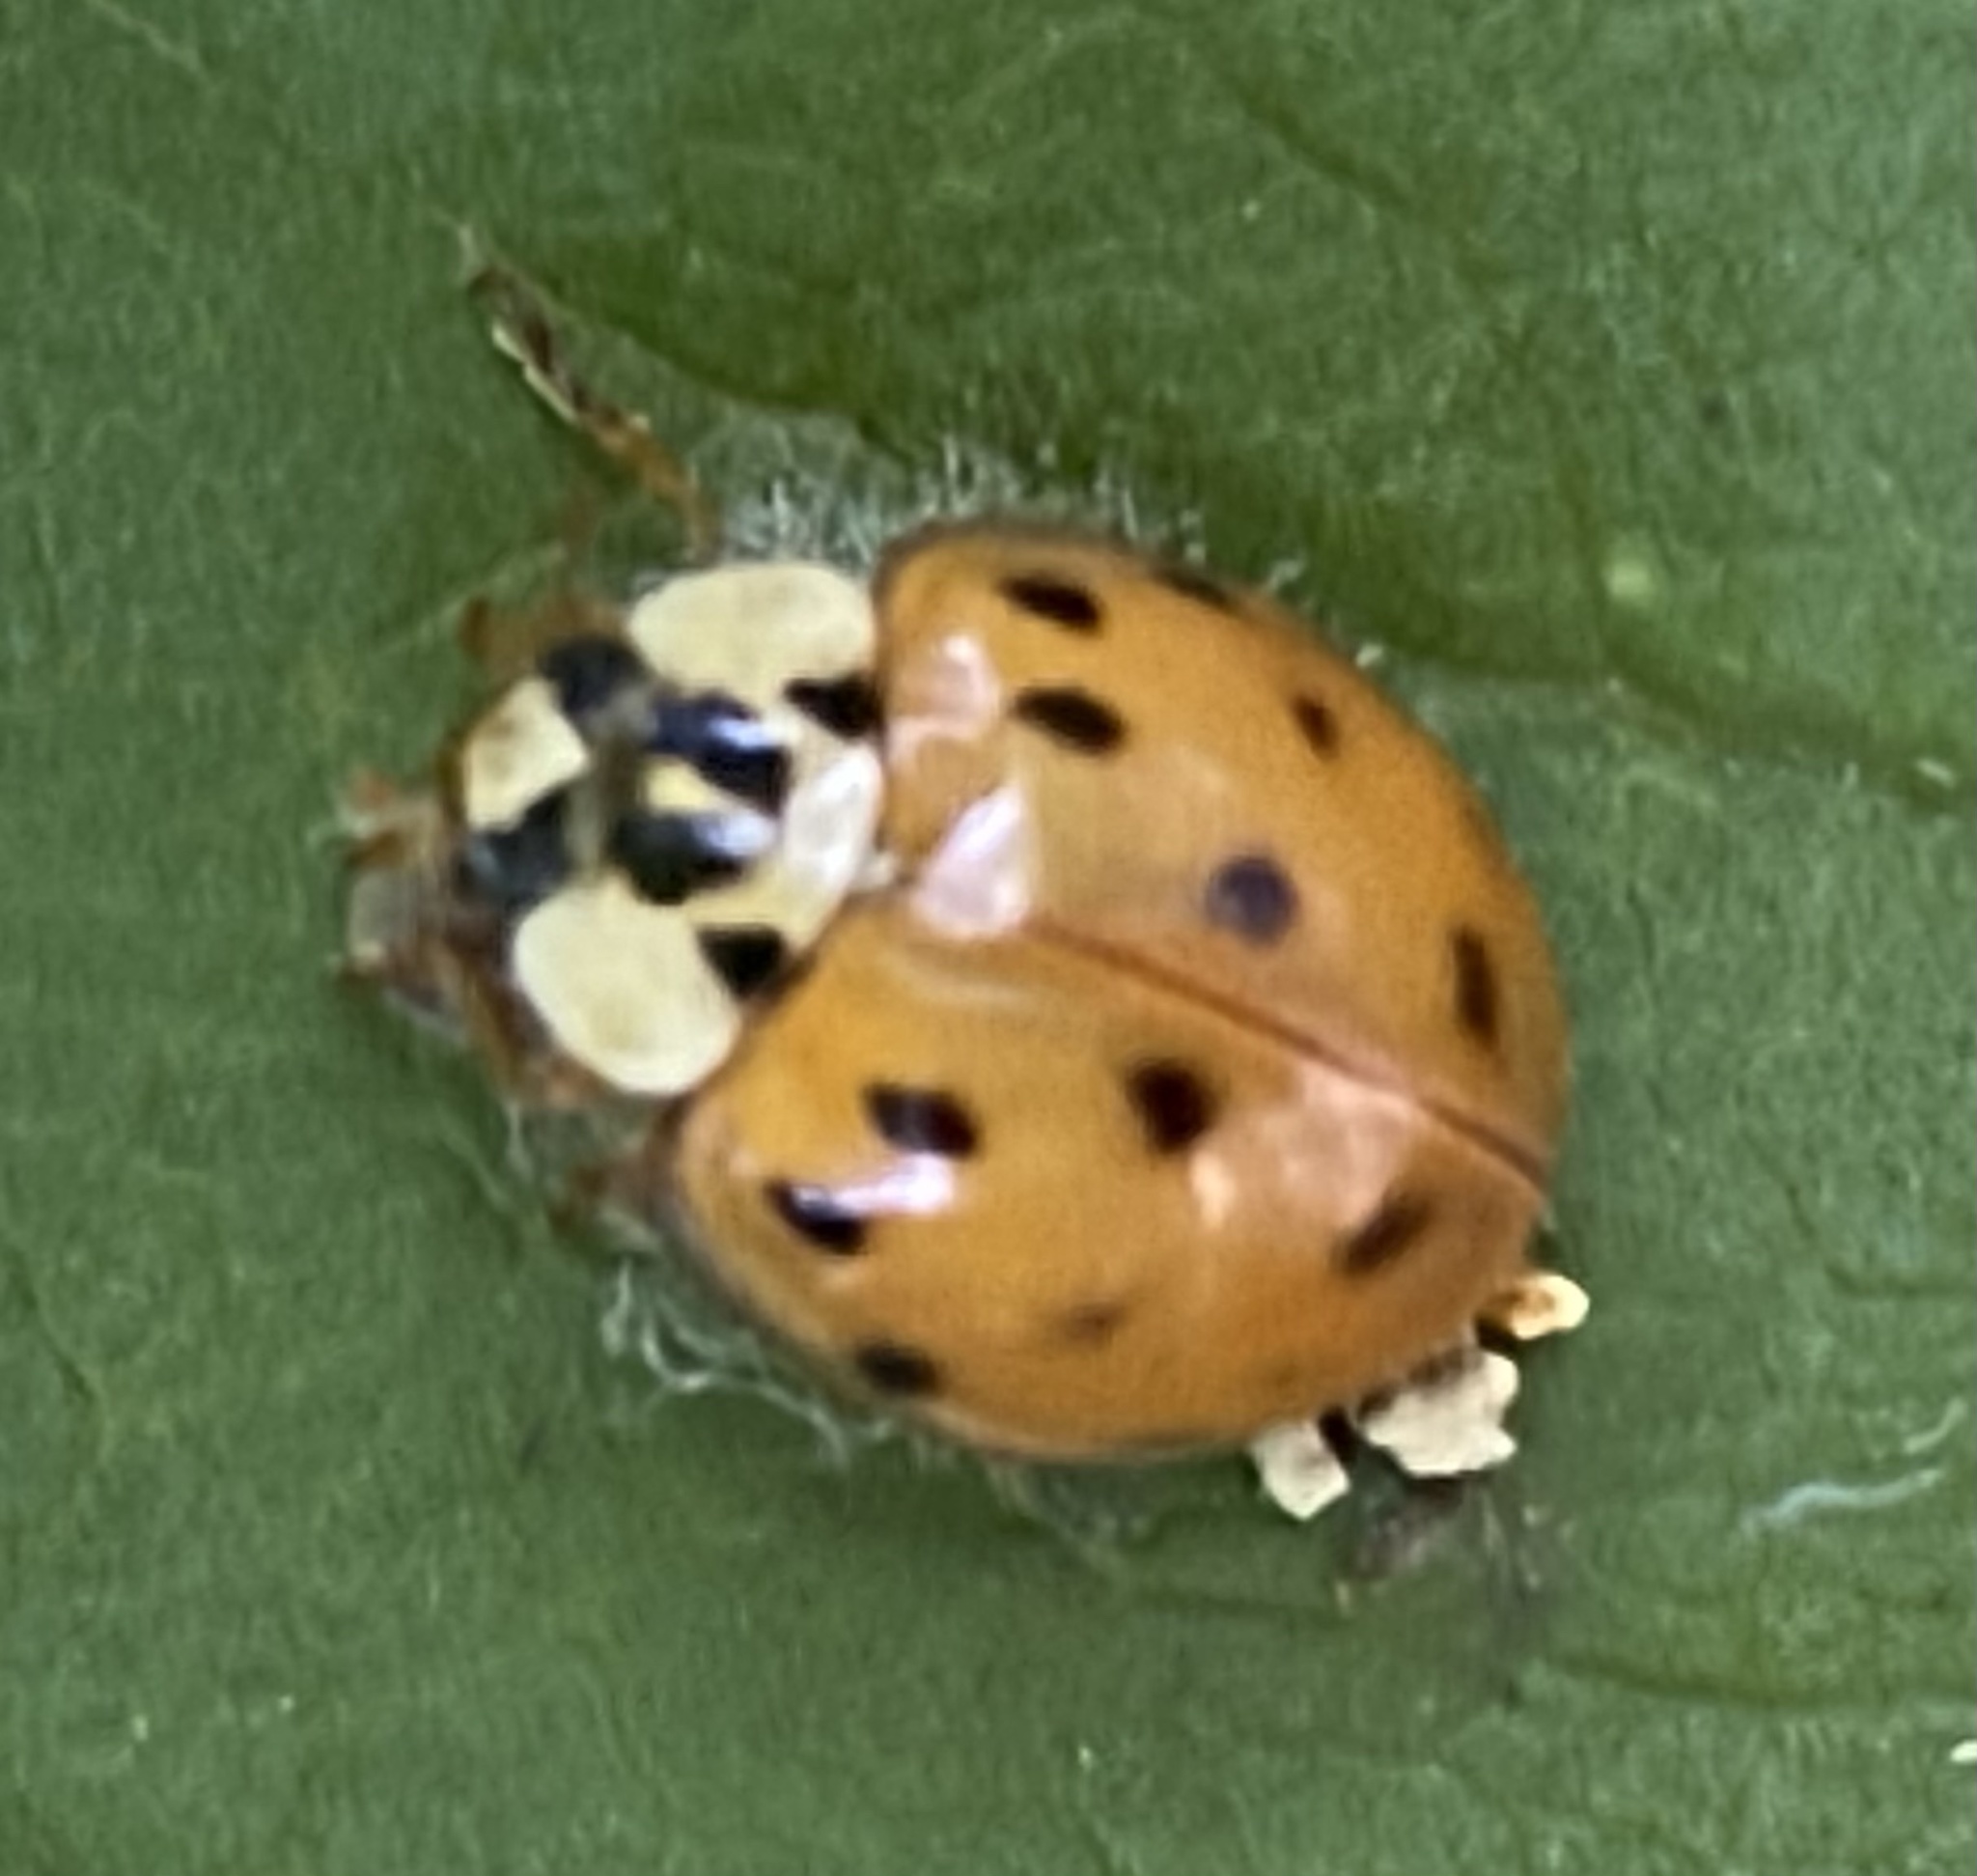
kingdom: Animalia
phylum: Arthropoda
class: Insecta
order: Coleoptera
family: Coccinellidae
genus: Harmonia
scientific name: Harmonia axyridis
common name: Harlequin ladybird
